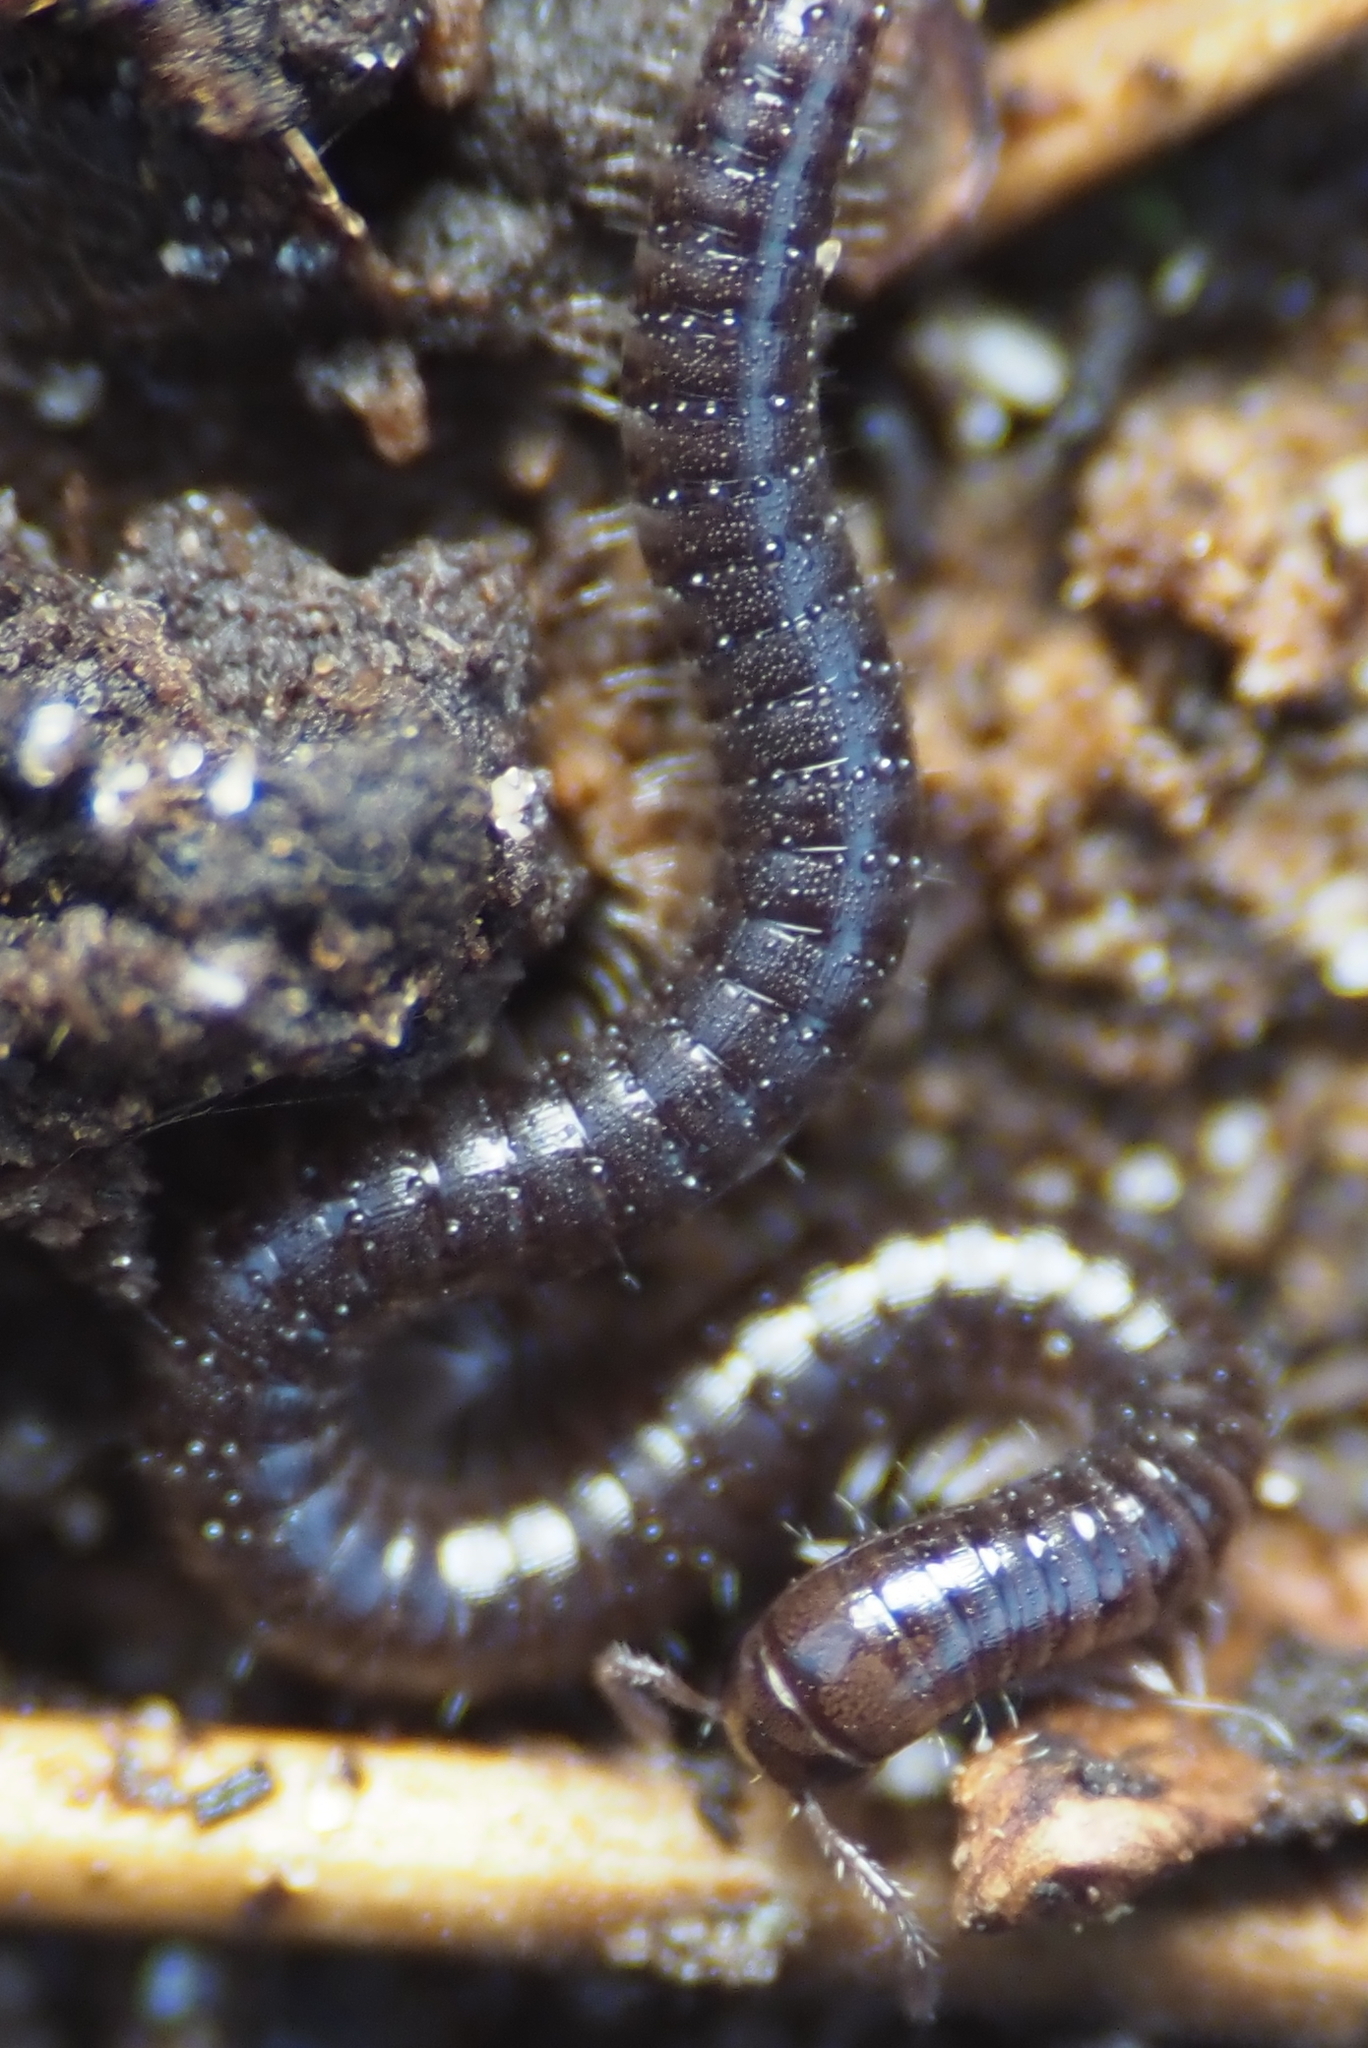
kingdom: Animalia
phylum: Arthropoda
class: Diplopoda
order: Julida
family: Julidae
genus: Ophyiulus
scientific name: Ophyiulus pilosus
